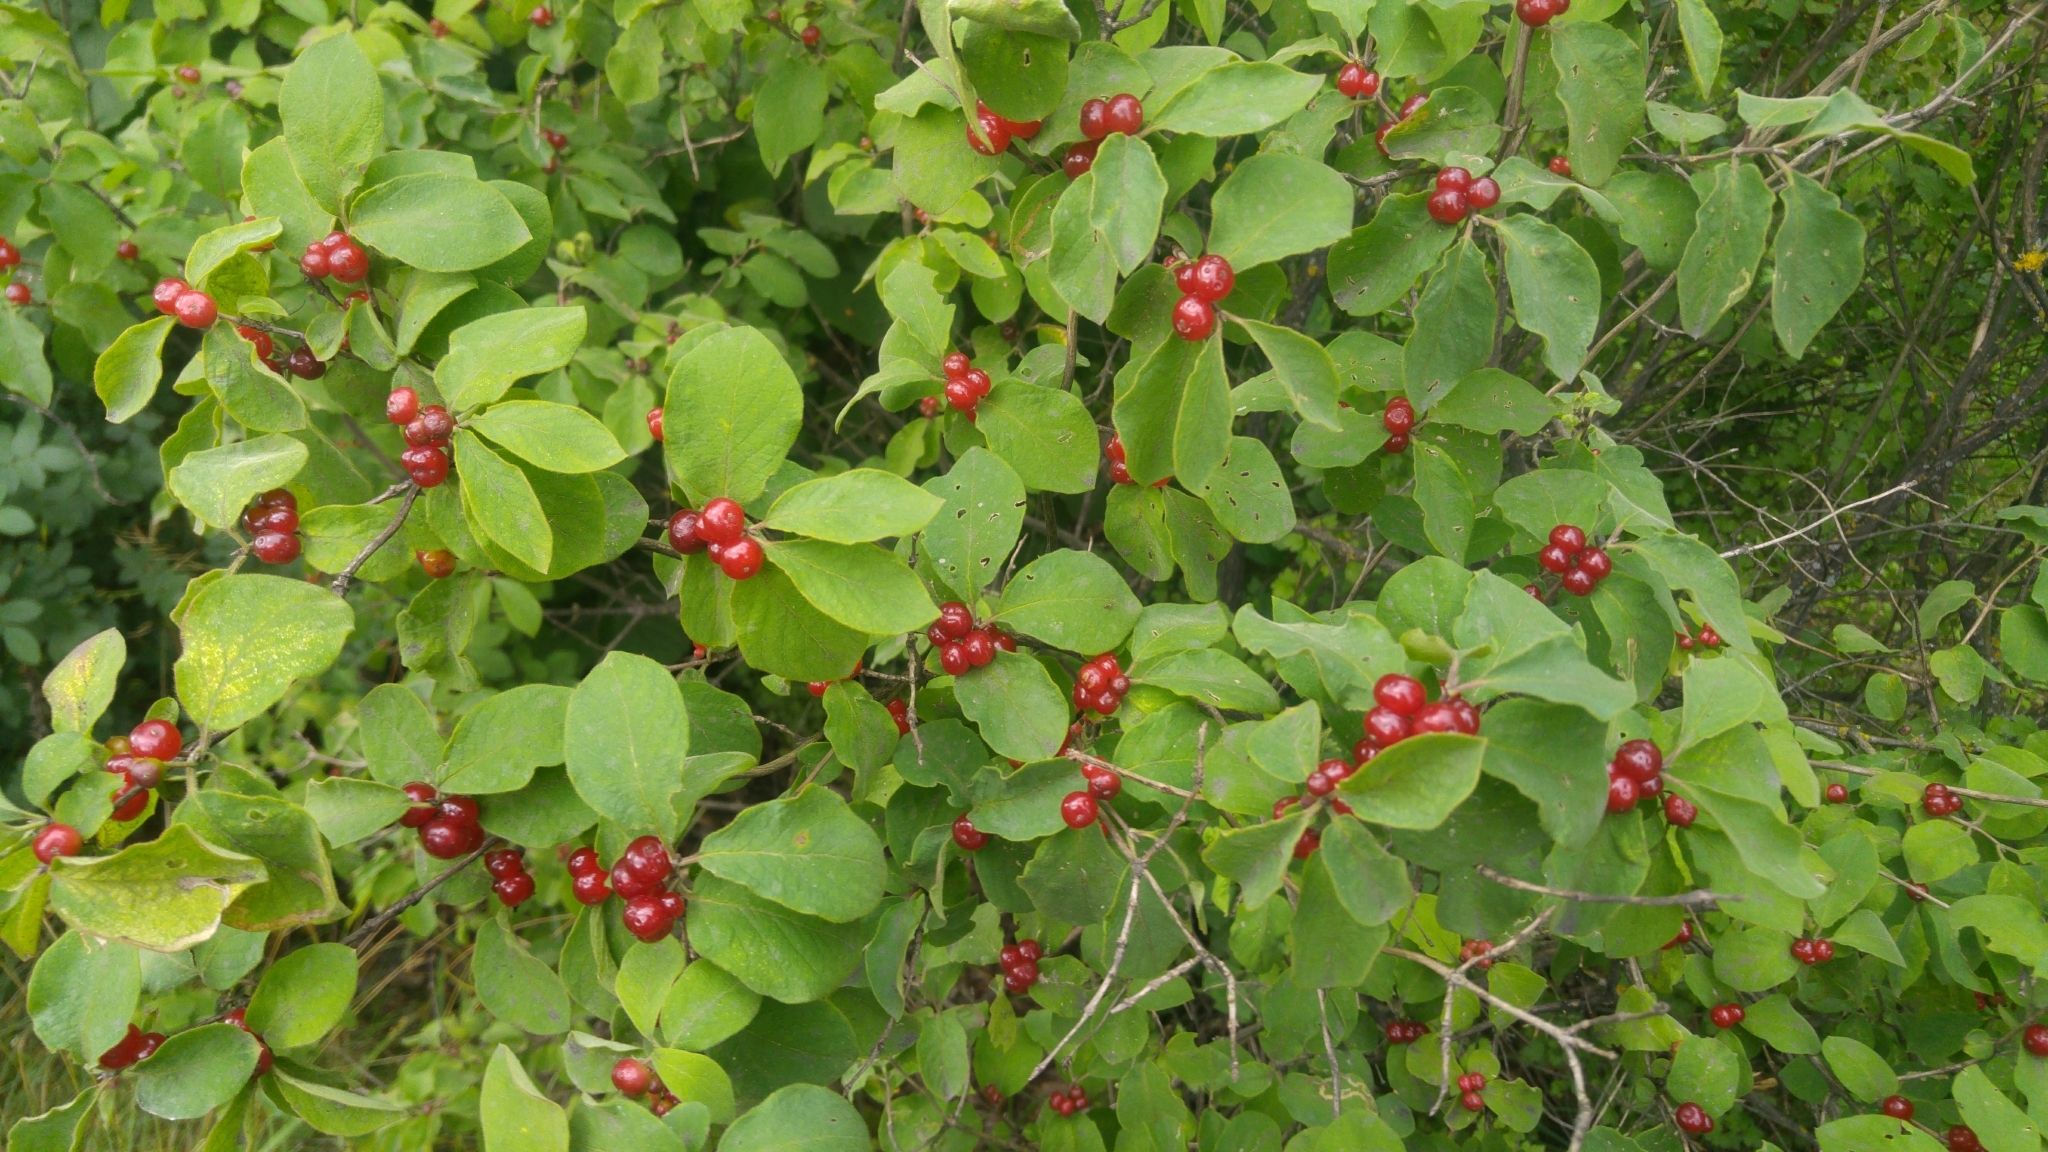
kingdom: Plantae
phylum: Tracheophyta
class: Magnoliopsida
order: Dipsacales
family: Caprifoliaceae
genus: Lonicera
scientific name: Lonicera xylosteum
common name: Fly honeysuckle
